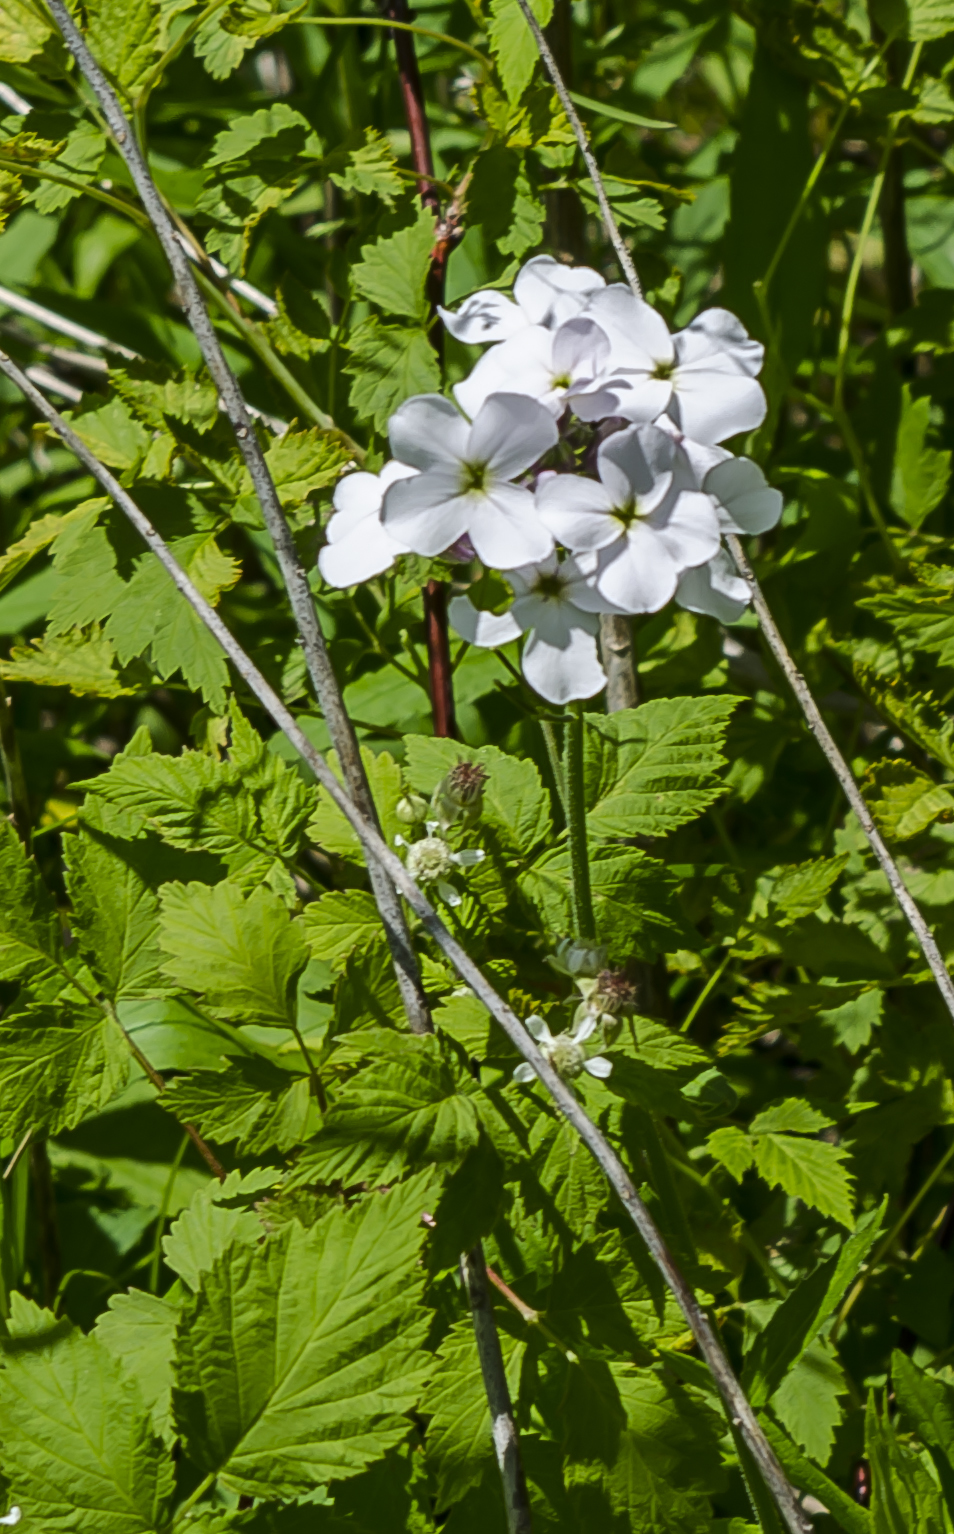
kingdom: Plantae
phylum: Tracheophyta
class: Magnoliopsida
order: Brassicales
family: Brassicaceae
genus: Hesperis
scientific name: Hesperis matronalis
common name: Dame's-violet
